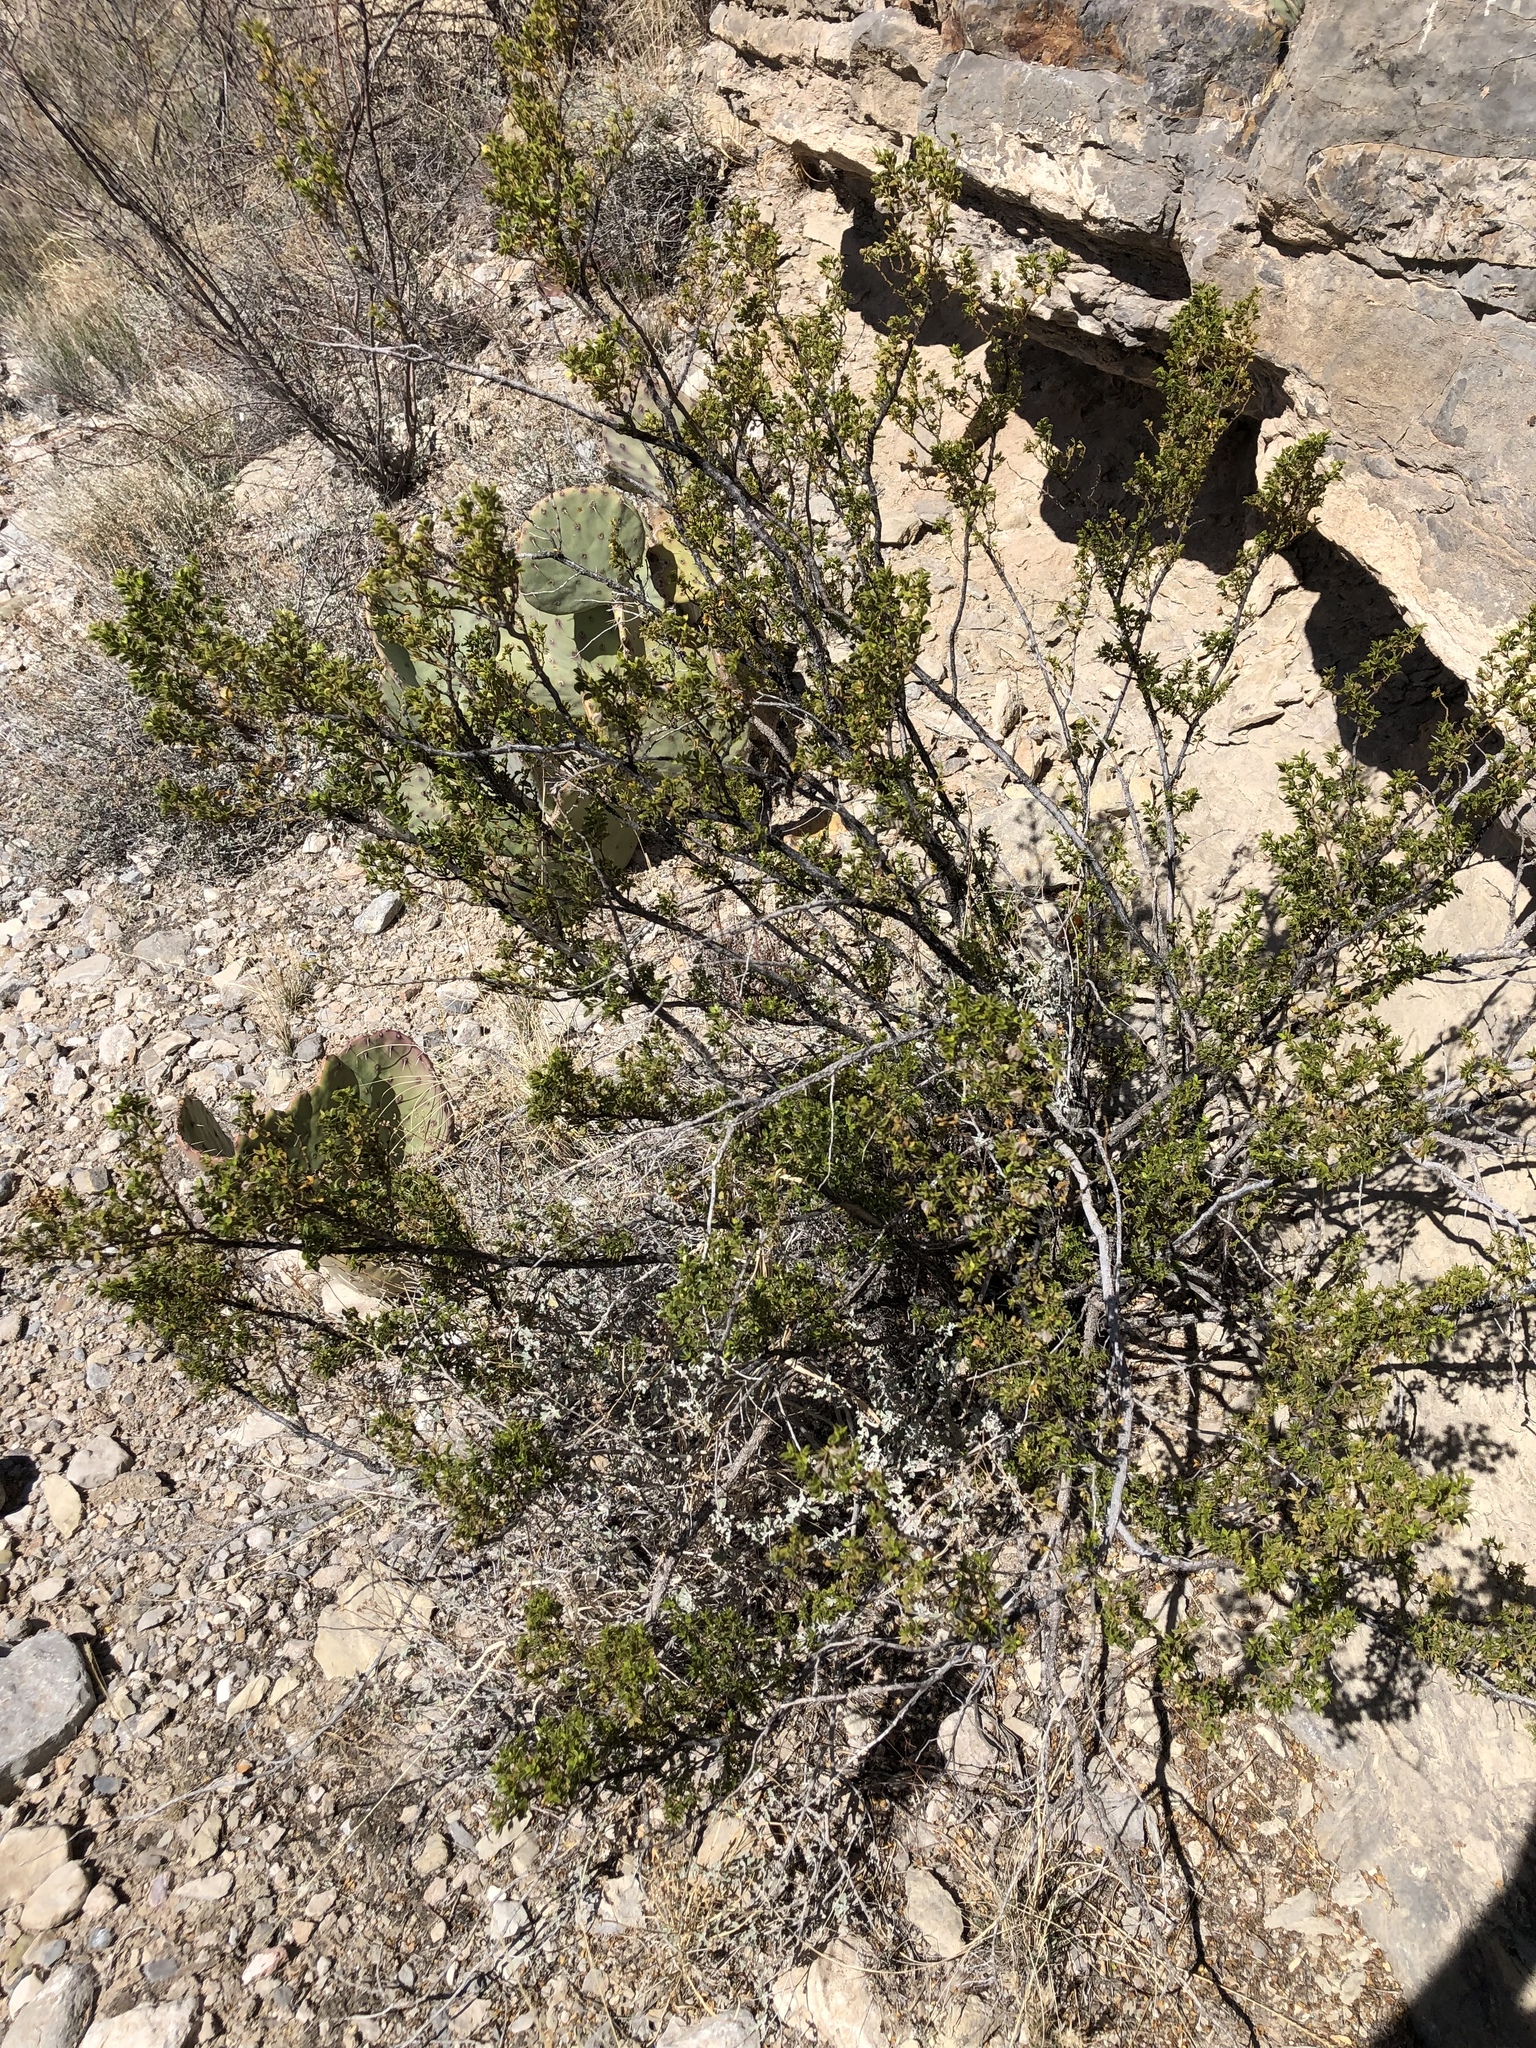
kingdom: Plantae
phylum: Tracheophyta
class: Magnoliopsida
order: Zygophyllales
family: Zygophyllaceae
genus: Larrea
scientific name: Larrea tridentata
